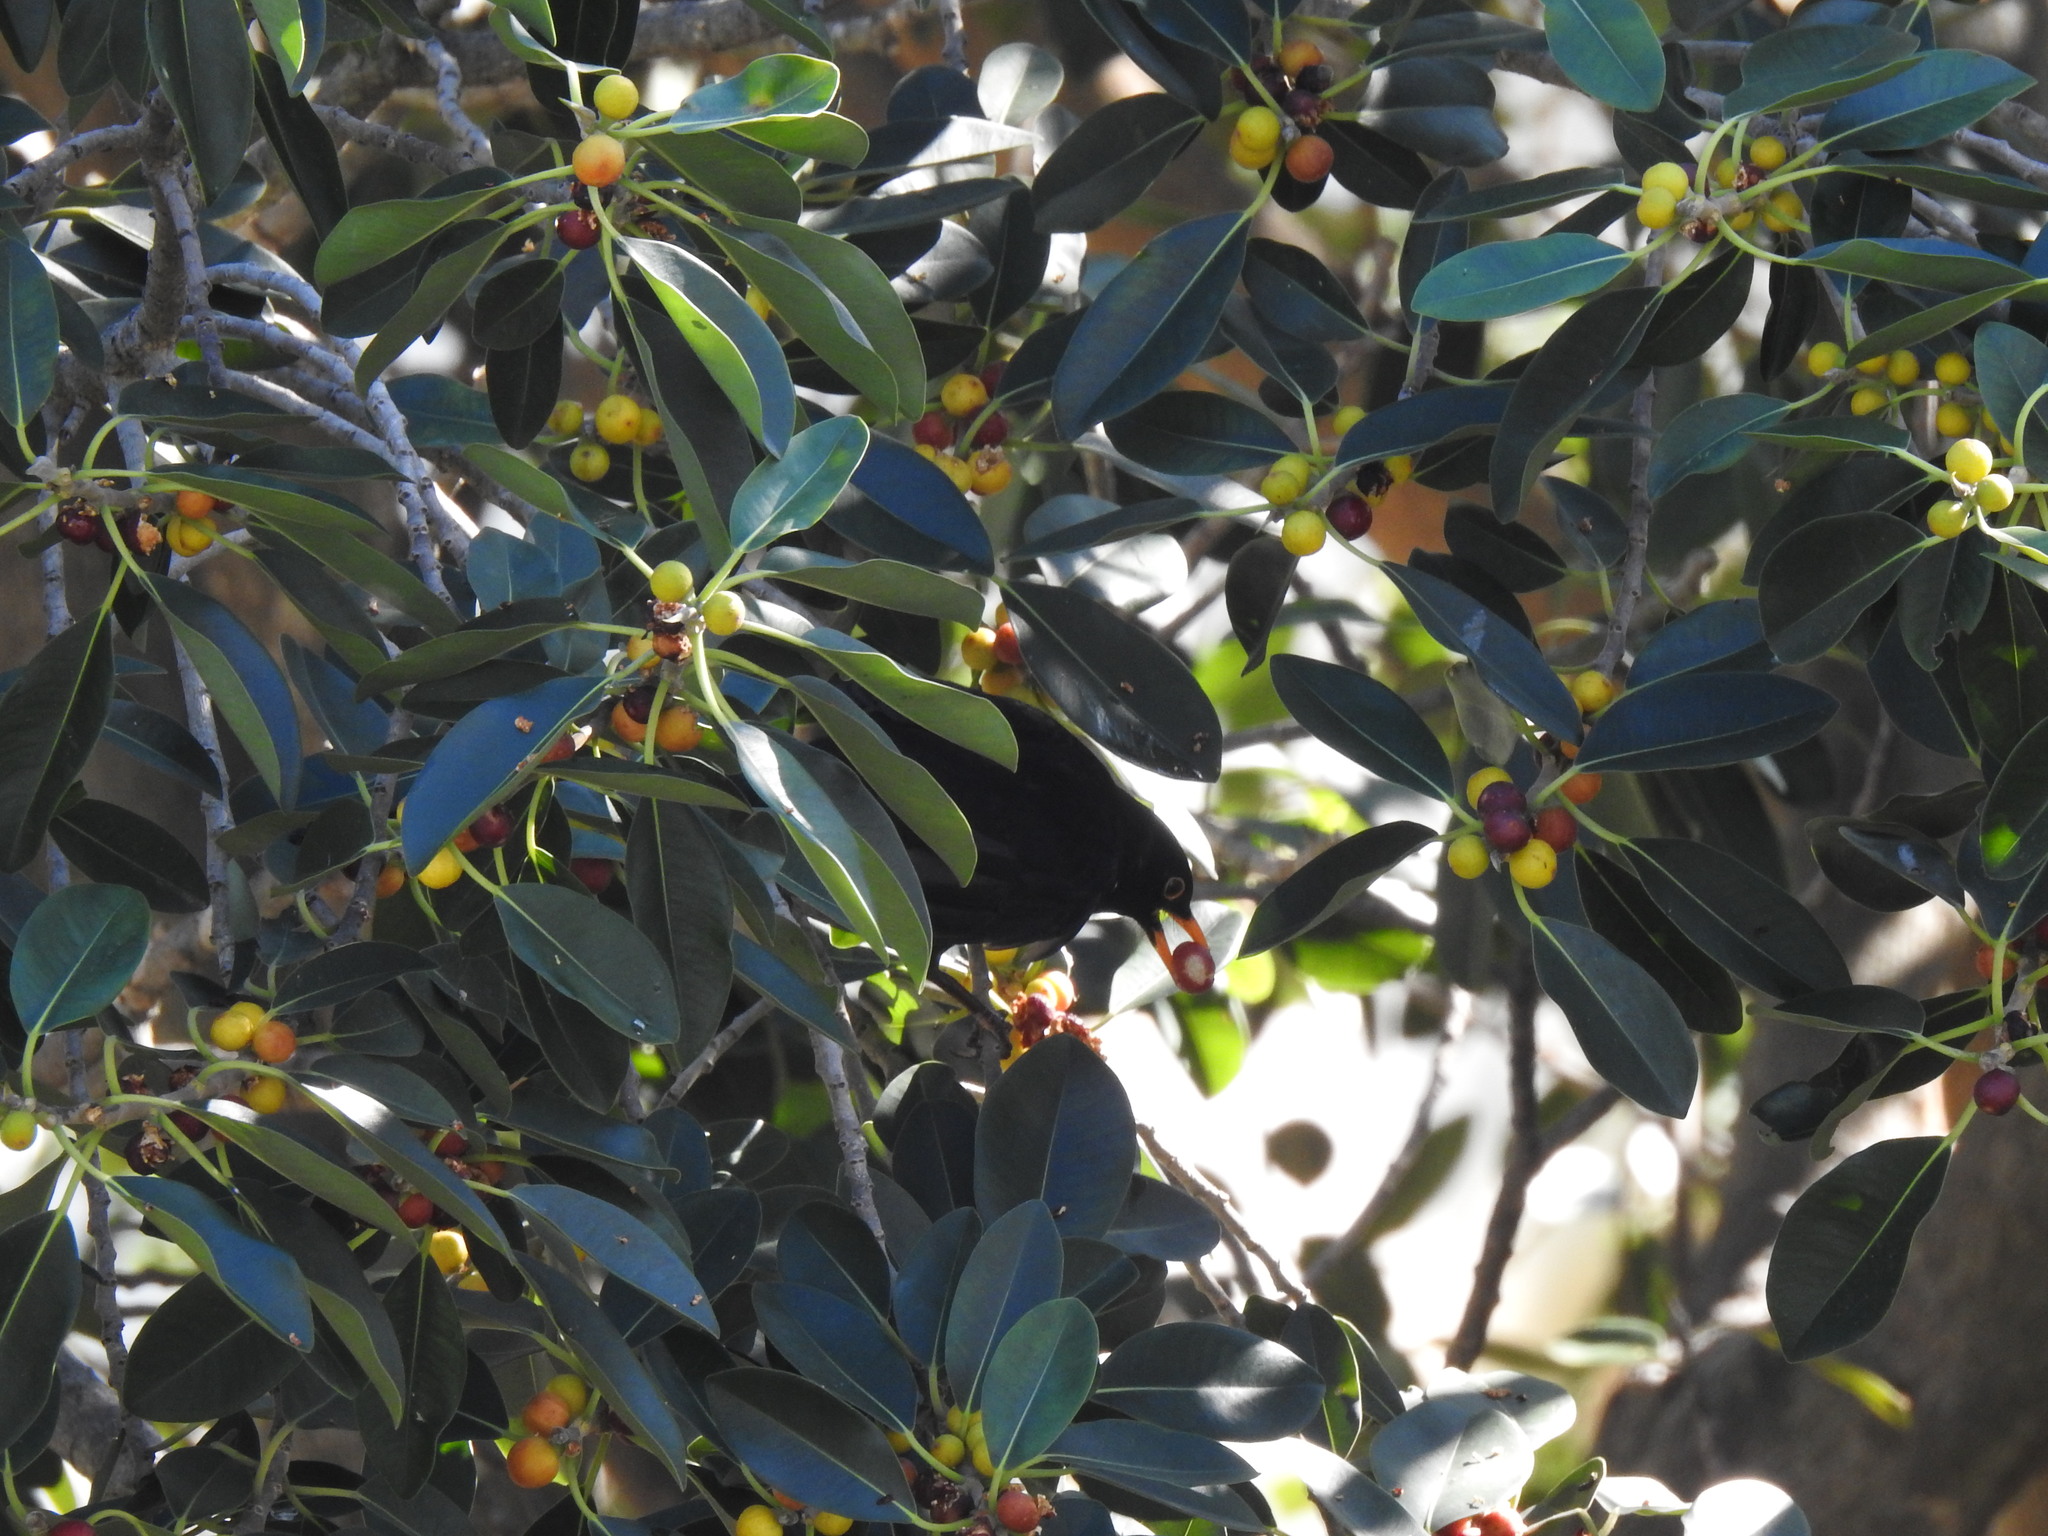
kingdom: Animalia
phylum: Chordata
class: Aves
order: Passeriformes
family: Turdidae
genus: Turdus
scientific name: Turdus merula
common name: Common blackbird
